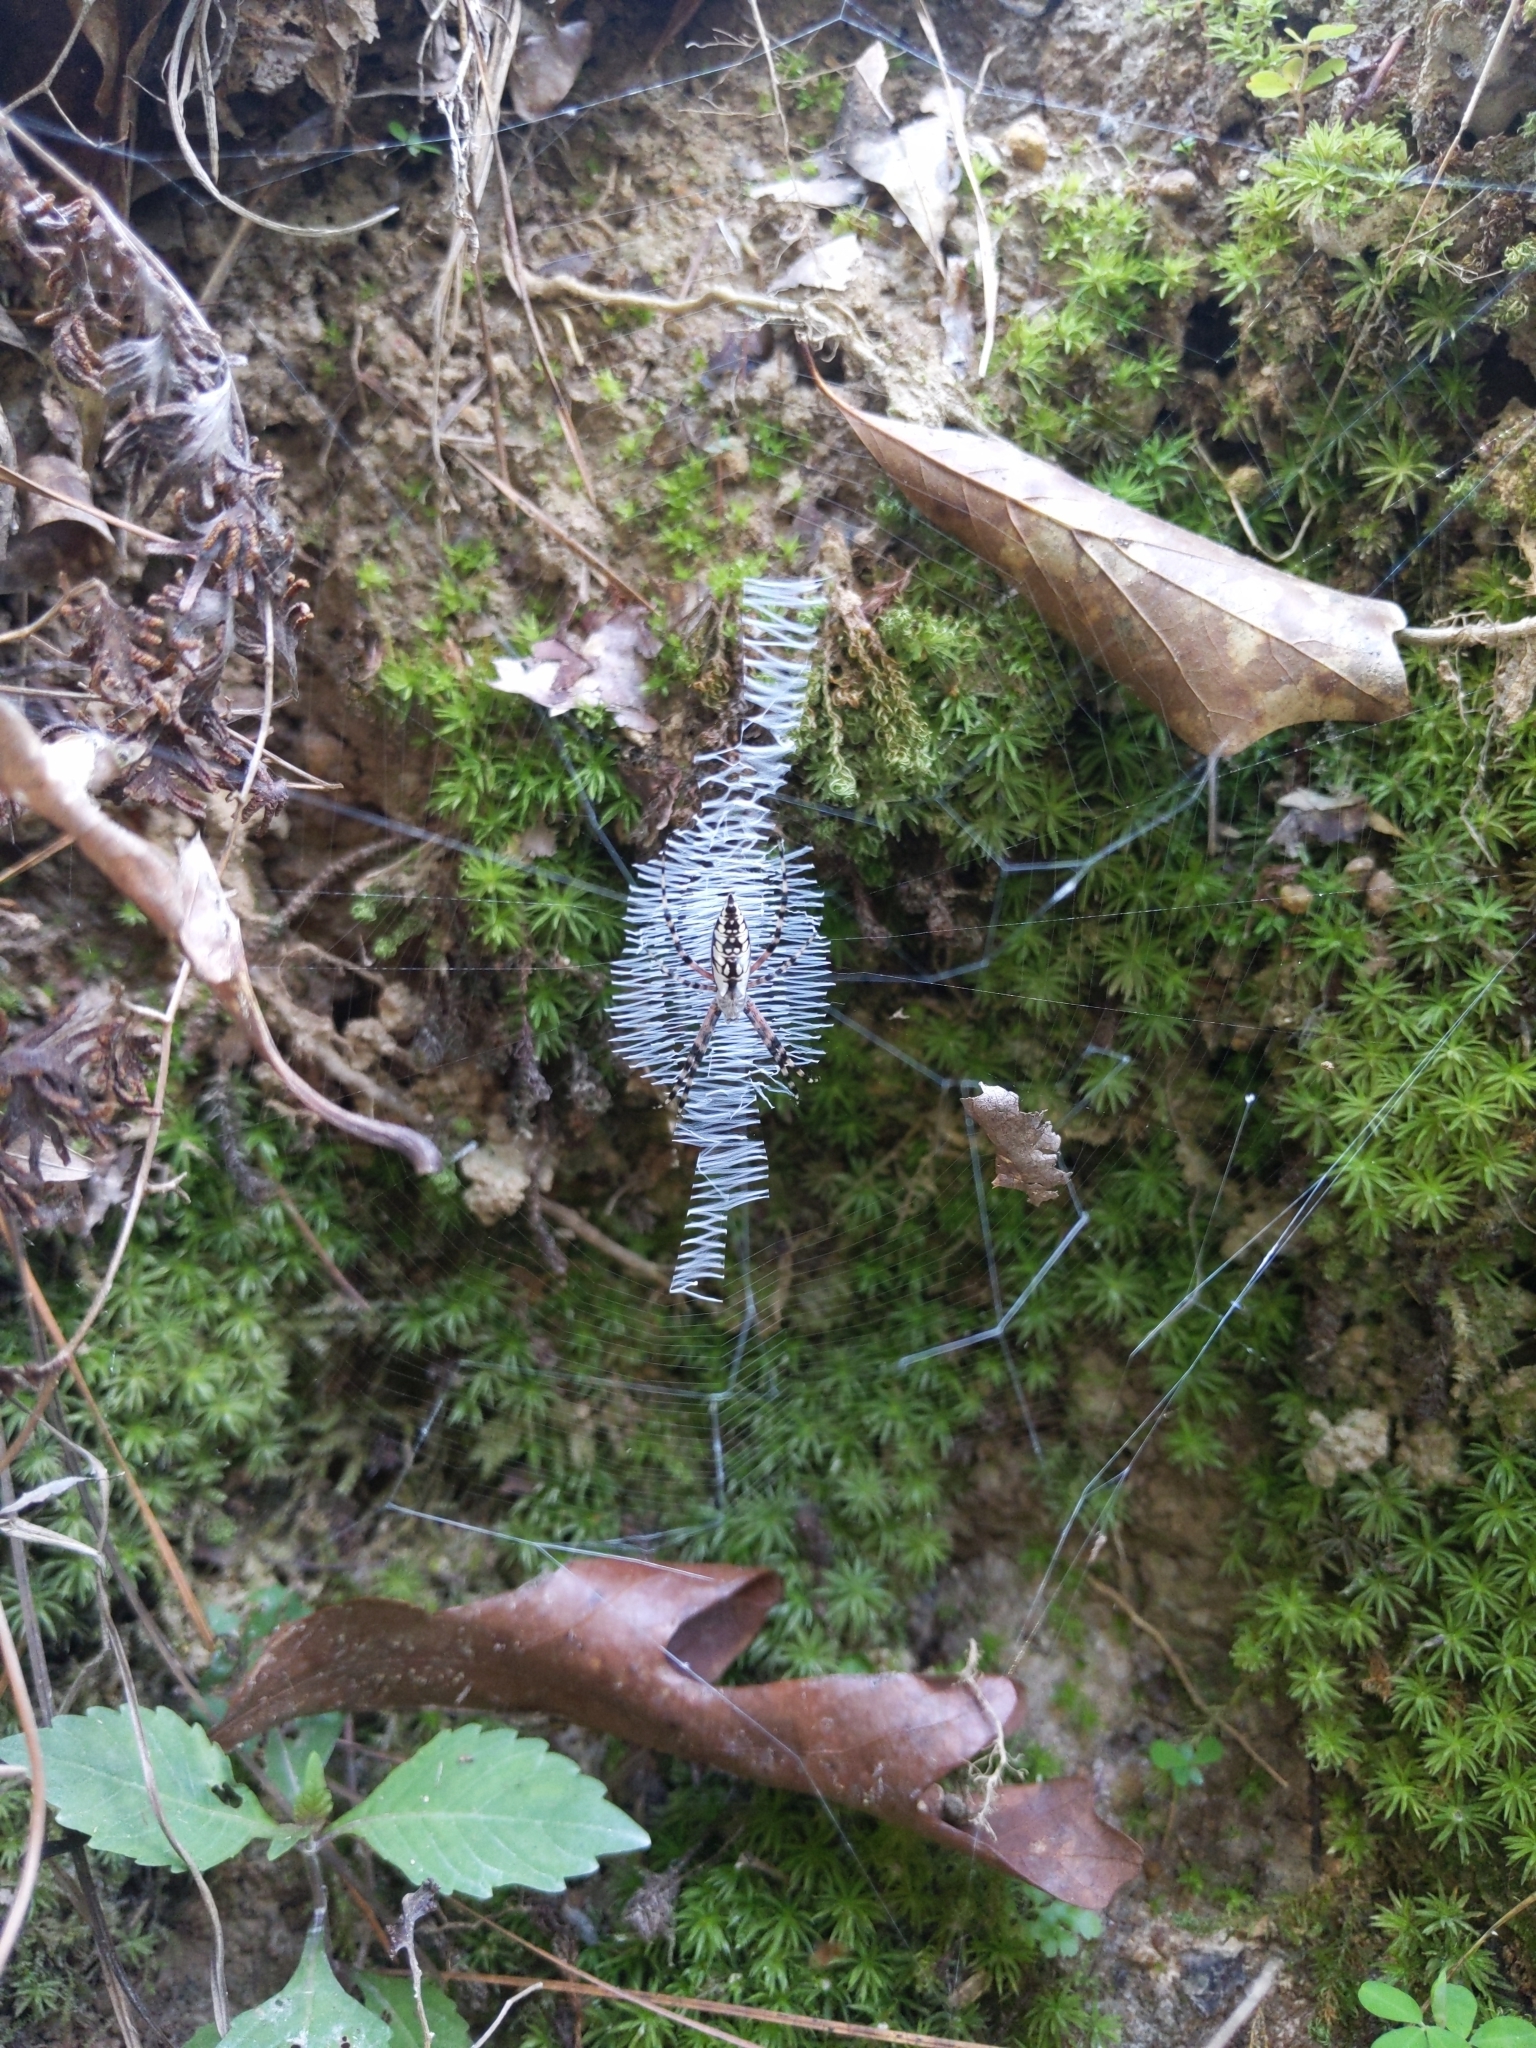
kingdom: Animalia
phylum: Arthropoda
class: Arachnida
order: Araneae
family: Araneidae
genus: Argiope
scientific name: Argiope aurantia
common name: Orb weavers
